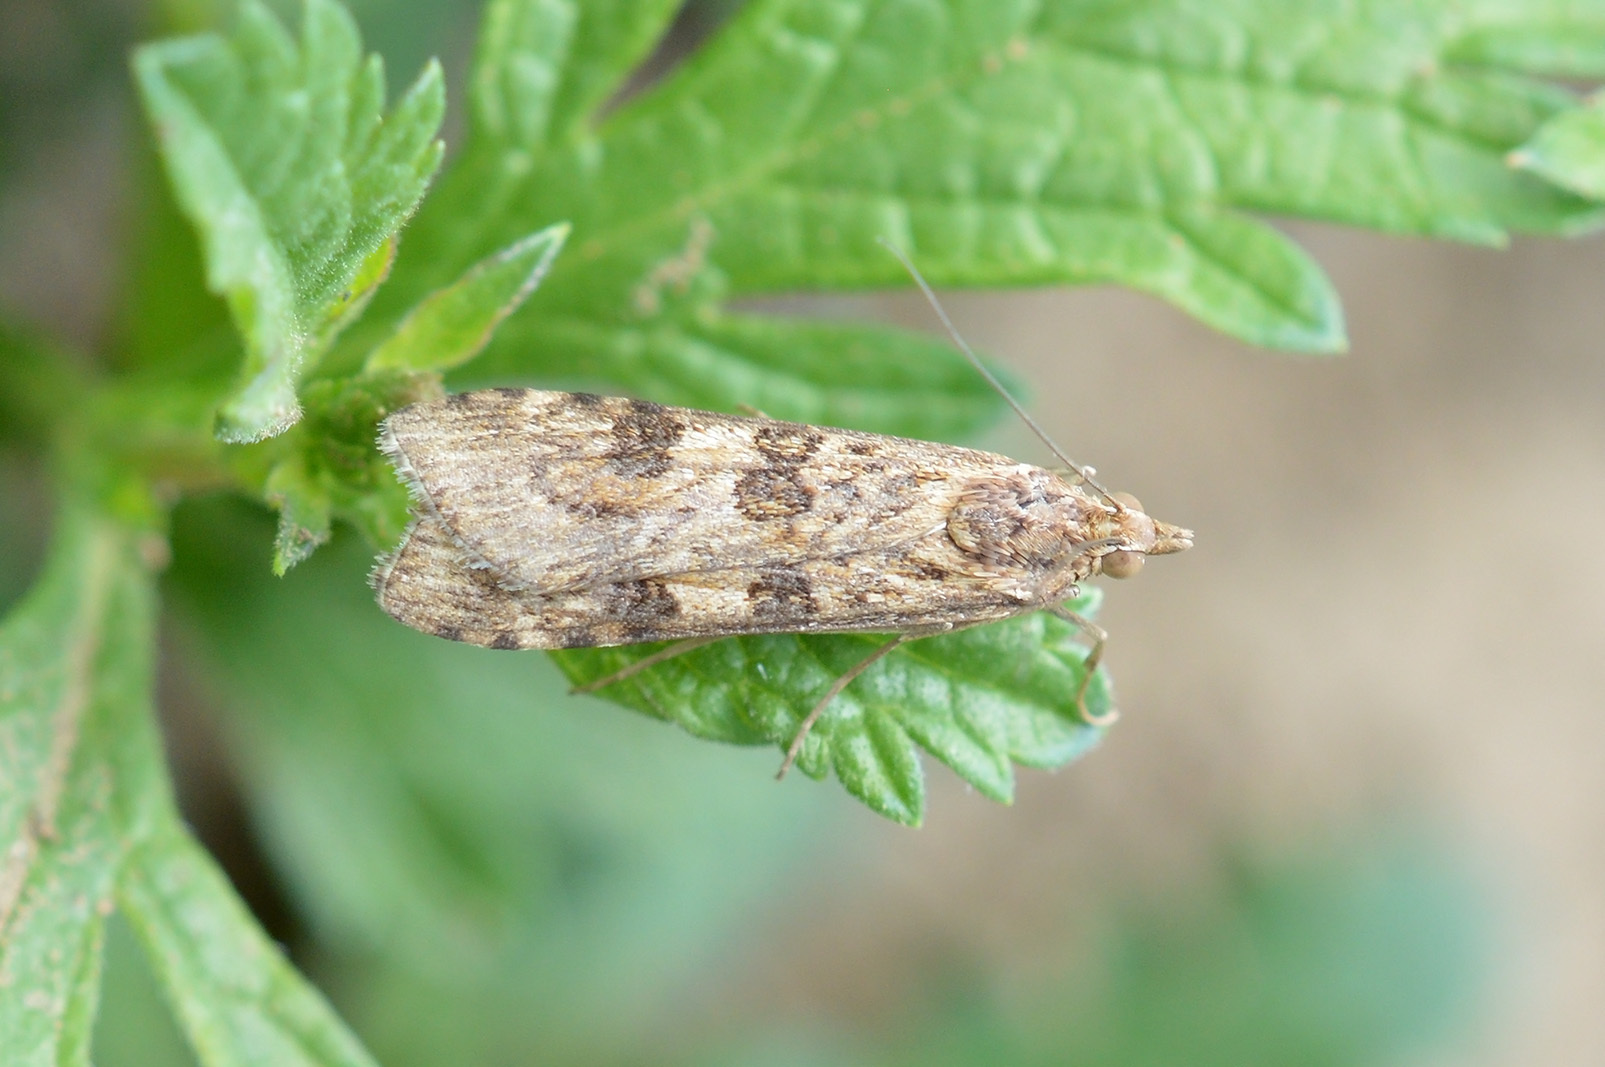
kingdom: Animalia
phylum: Arthropoda
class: Insecta
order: Lepidoptera
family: Crambidae
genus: Nomophila
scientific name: Nomophila noctuella
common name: Rush veneer
